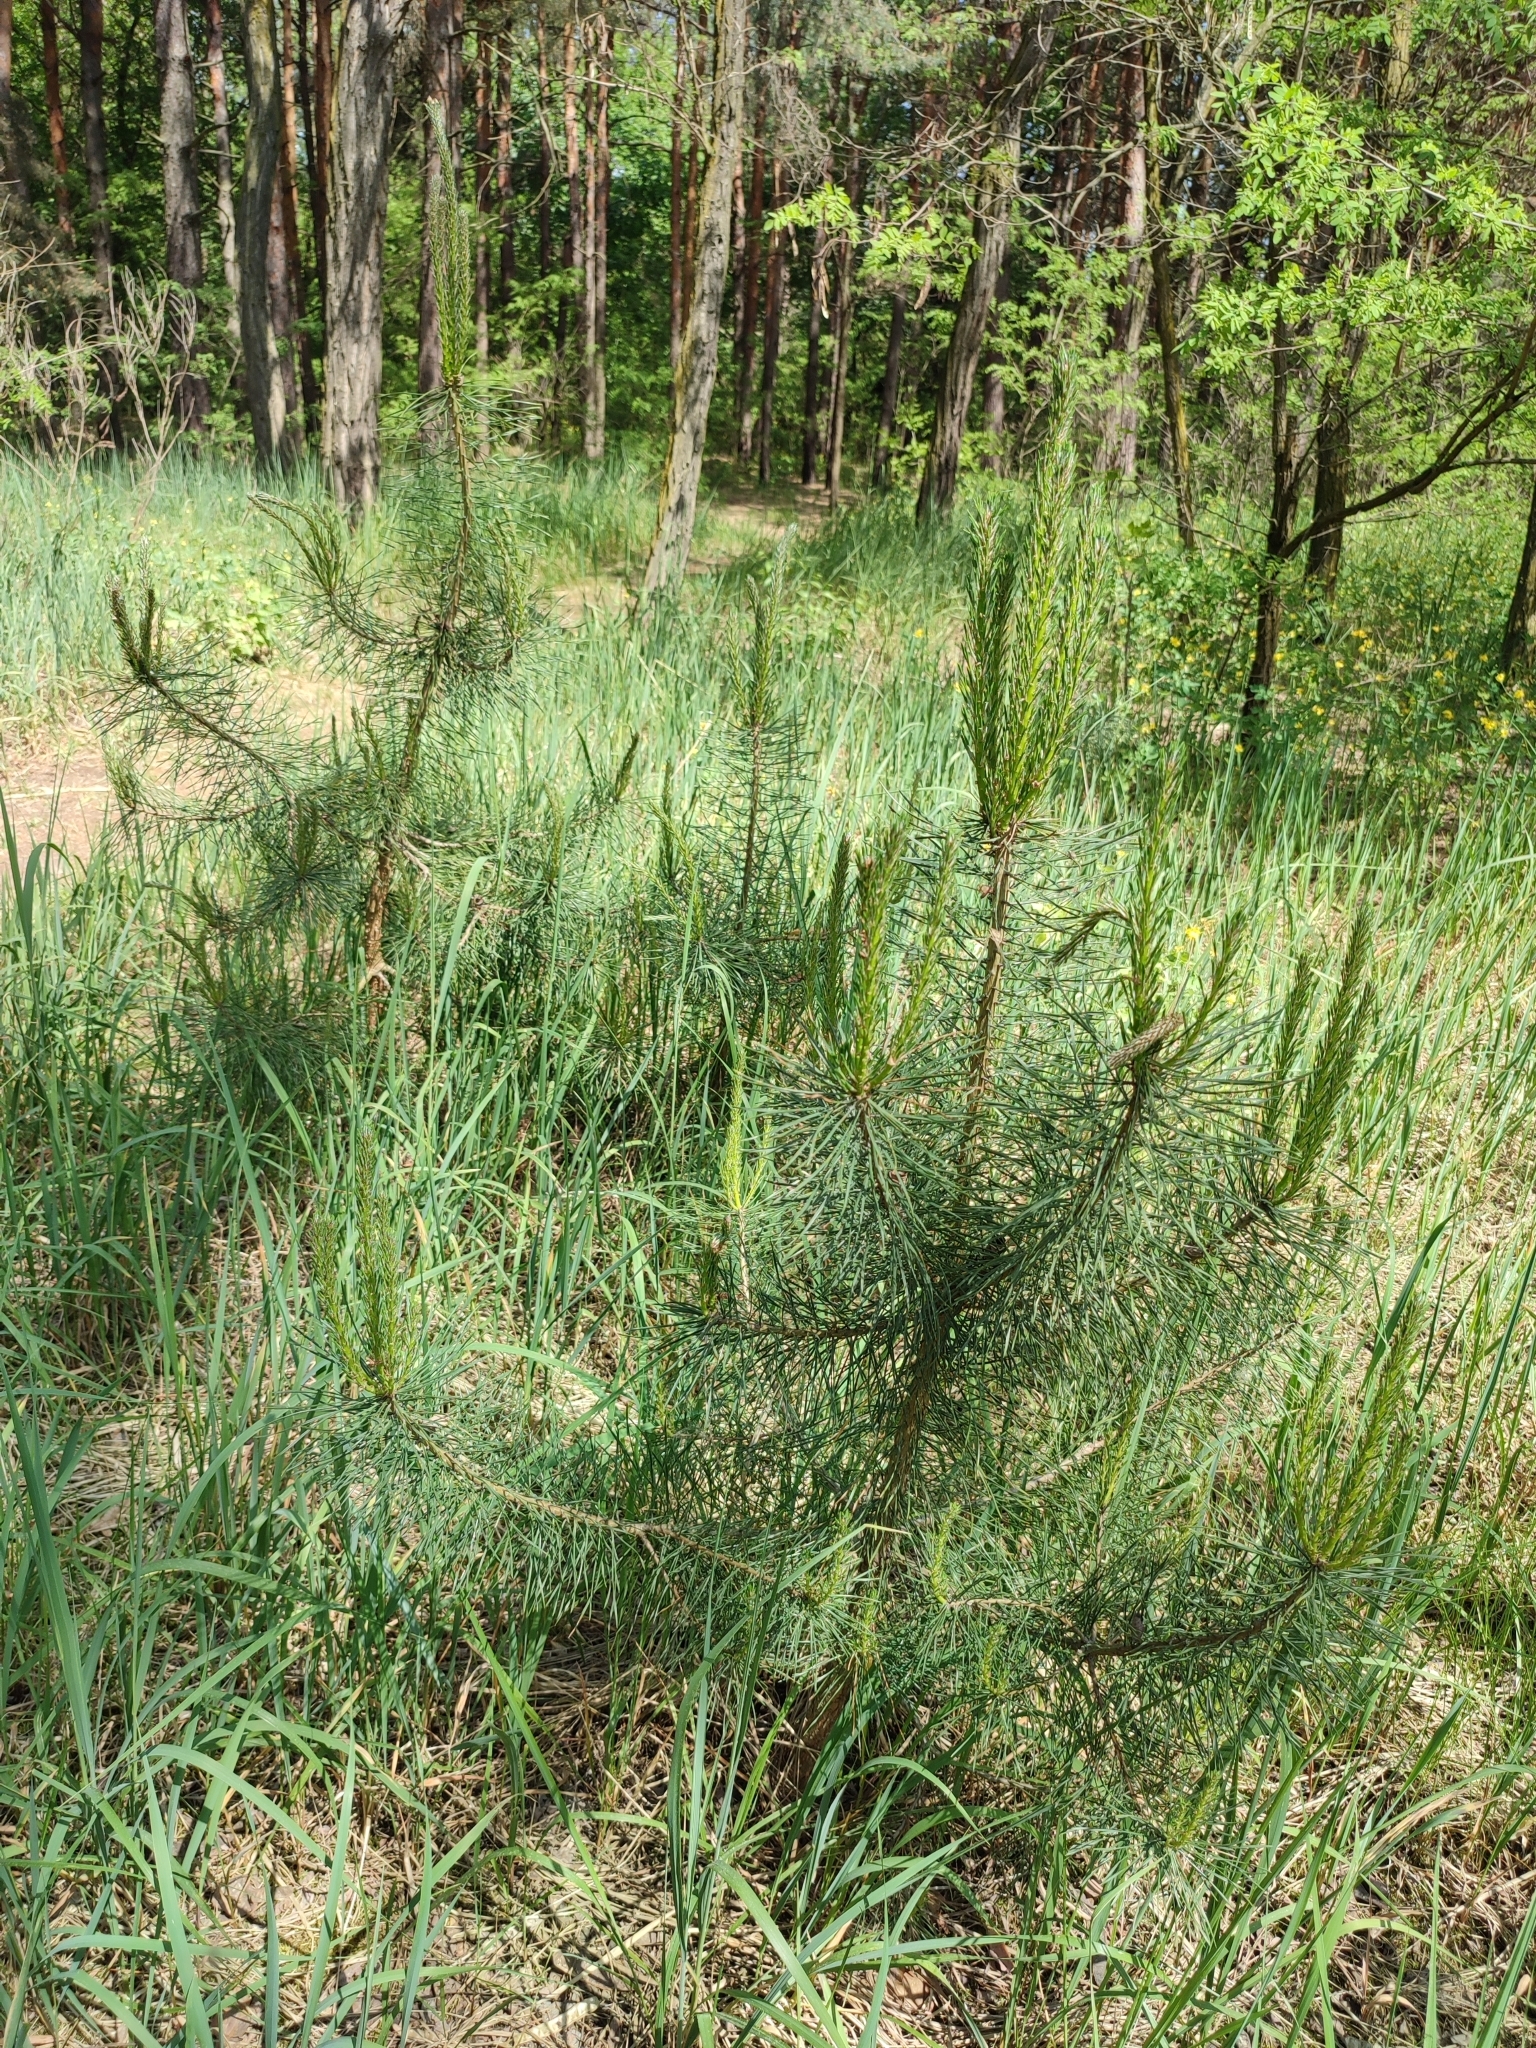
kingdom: Plantae
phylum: Tracheophyta
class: Pinopsida
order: Pinales
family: Pinaceae
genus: Pinus
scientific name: Pinus sylvestris
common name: Scots pine
